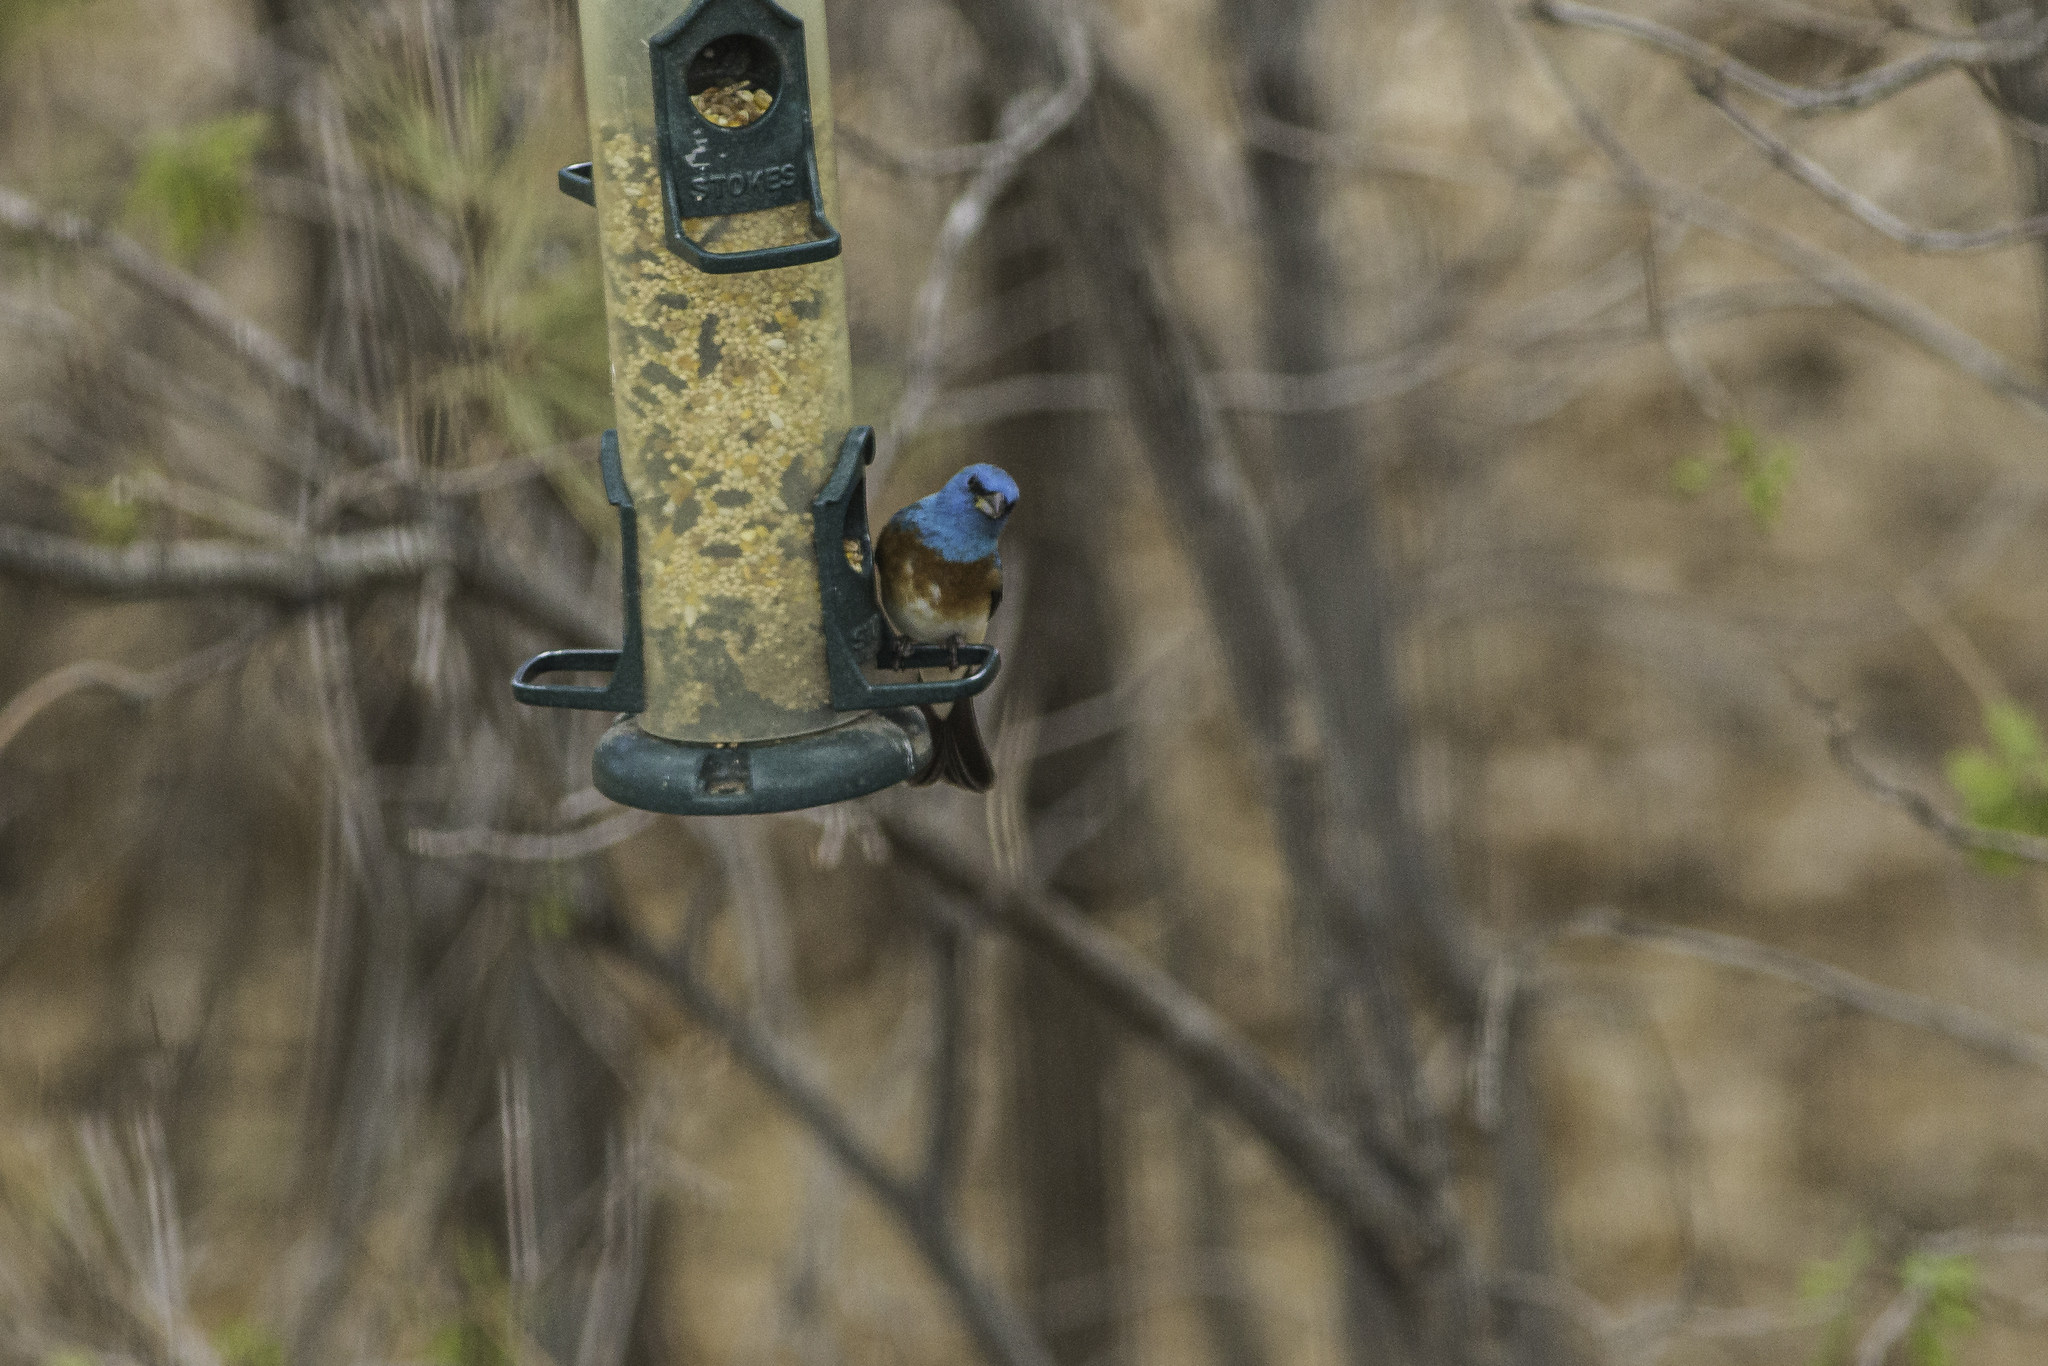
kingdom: Animalia
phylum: Chordata
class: Aves
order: Passeriformes
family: Cardinalidae
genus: Passerina
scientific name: Passerina amoena
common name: Lazuli bunting
